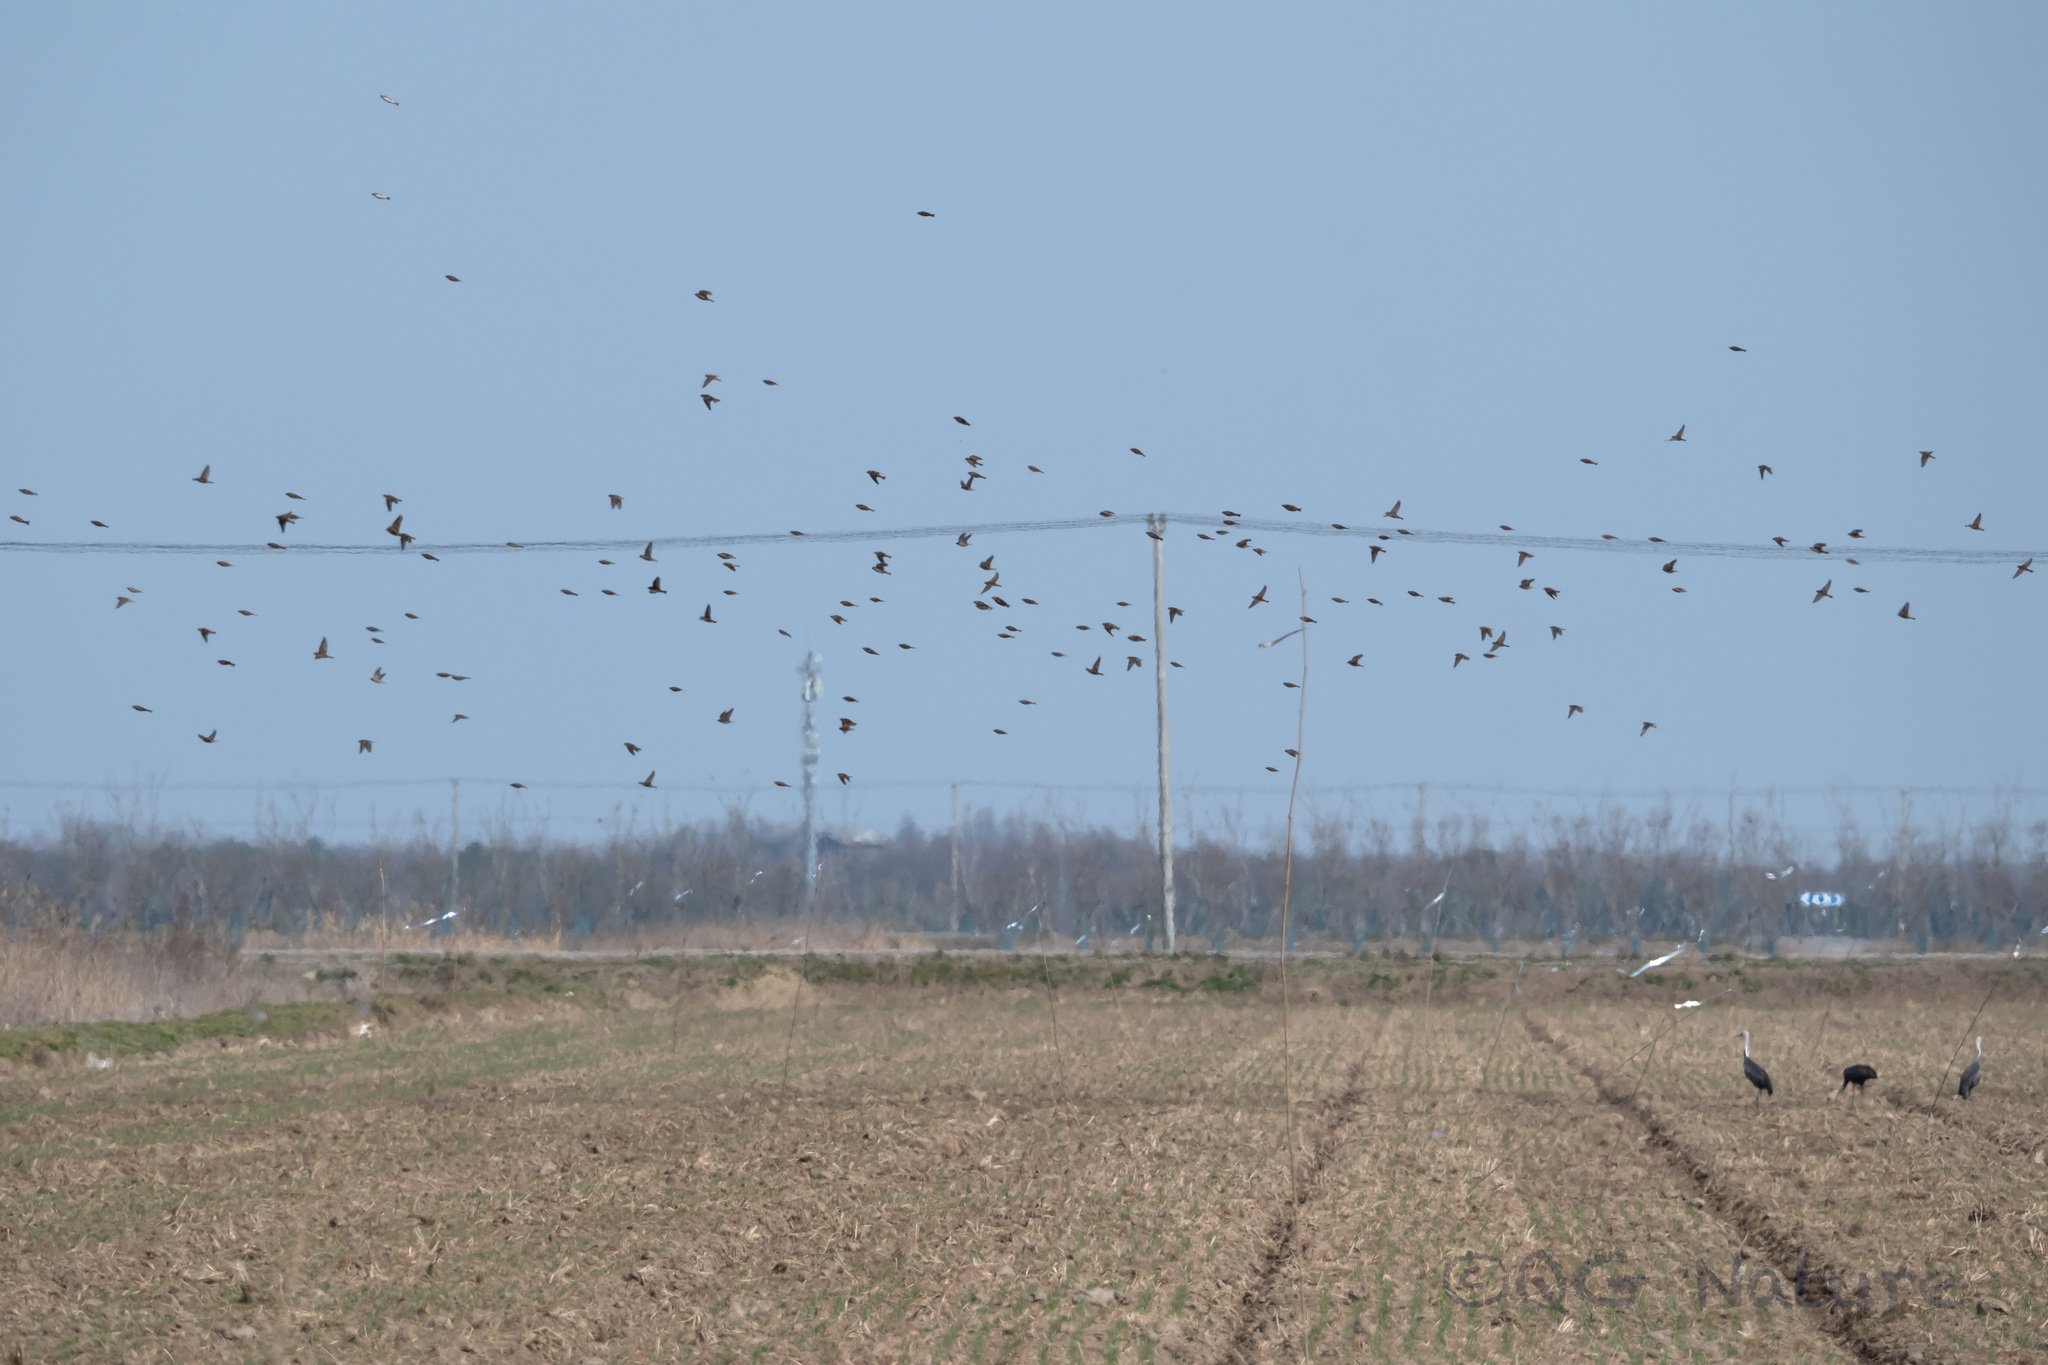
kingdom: Animalia
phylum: Chordata
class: Aves
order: Passeriformes
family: Calcariidae
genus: Calcarius
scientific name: Calcarius lapponicus
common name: Lapland longspur
